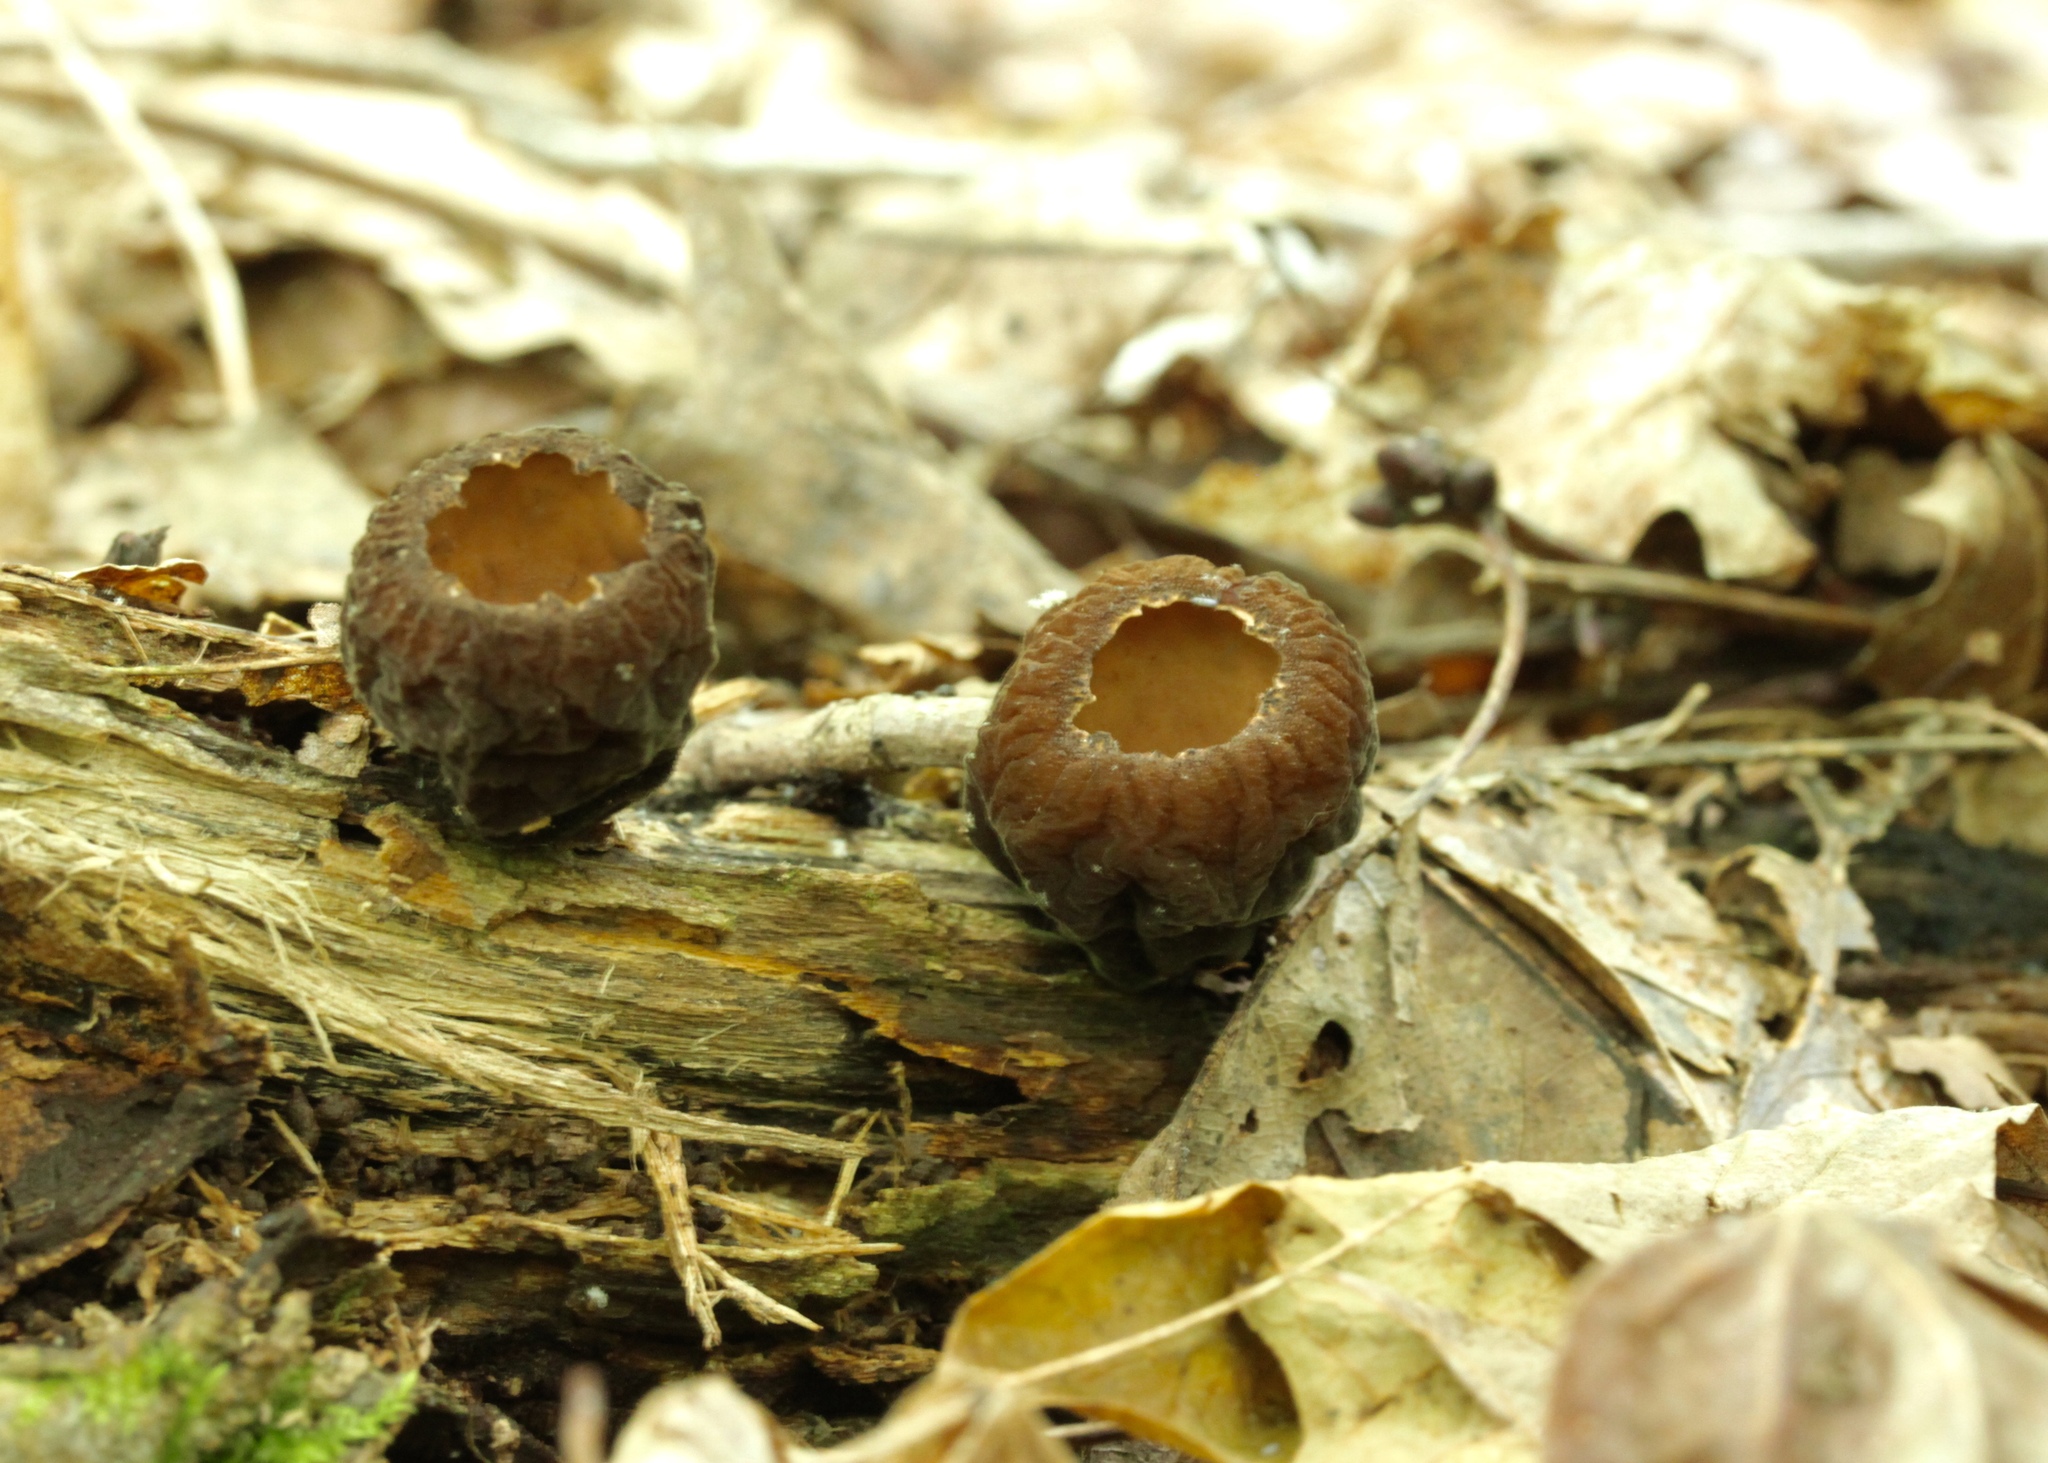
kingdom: Fungi
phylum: Ascomycota
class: Pezizomycetes
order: Pezizales
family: Sarcosomataceae
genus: Galiella
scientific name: Galiella rufa
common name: Hairy rubber cup
